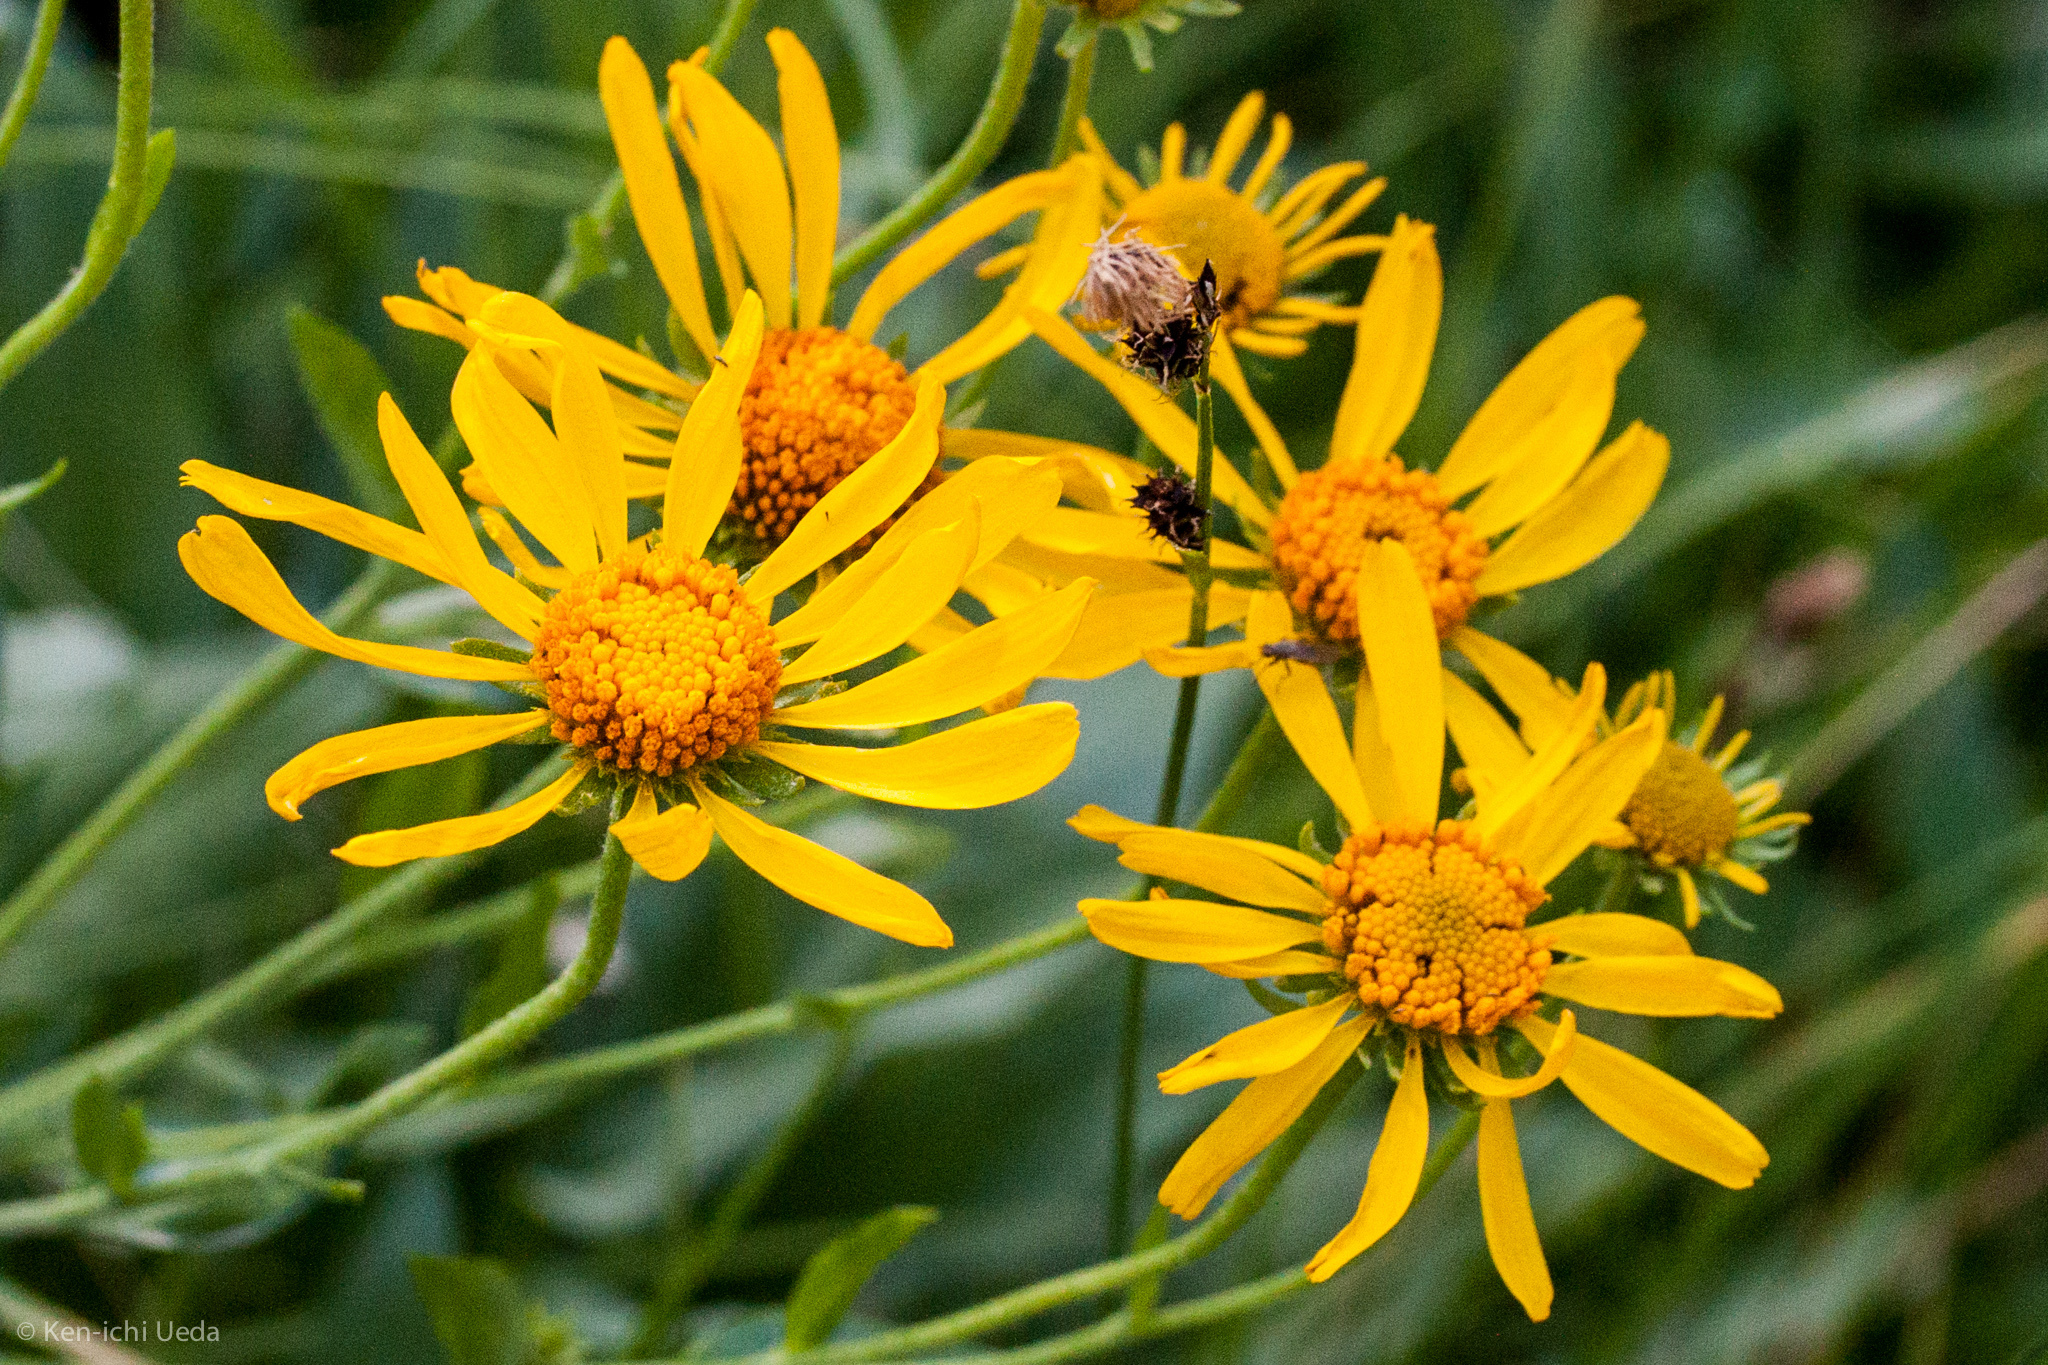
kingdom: Plantae
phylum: Tracheophyta
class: Magnoliopsida
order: Asterales
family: Asteraceae
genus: Hymenoxys
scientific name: Hymenoxys hoopesii
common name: Orange-sneezeweed
